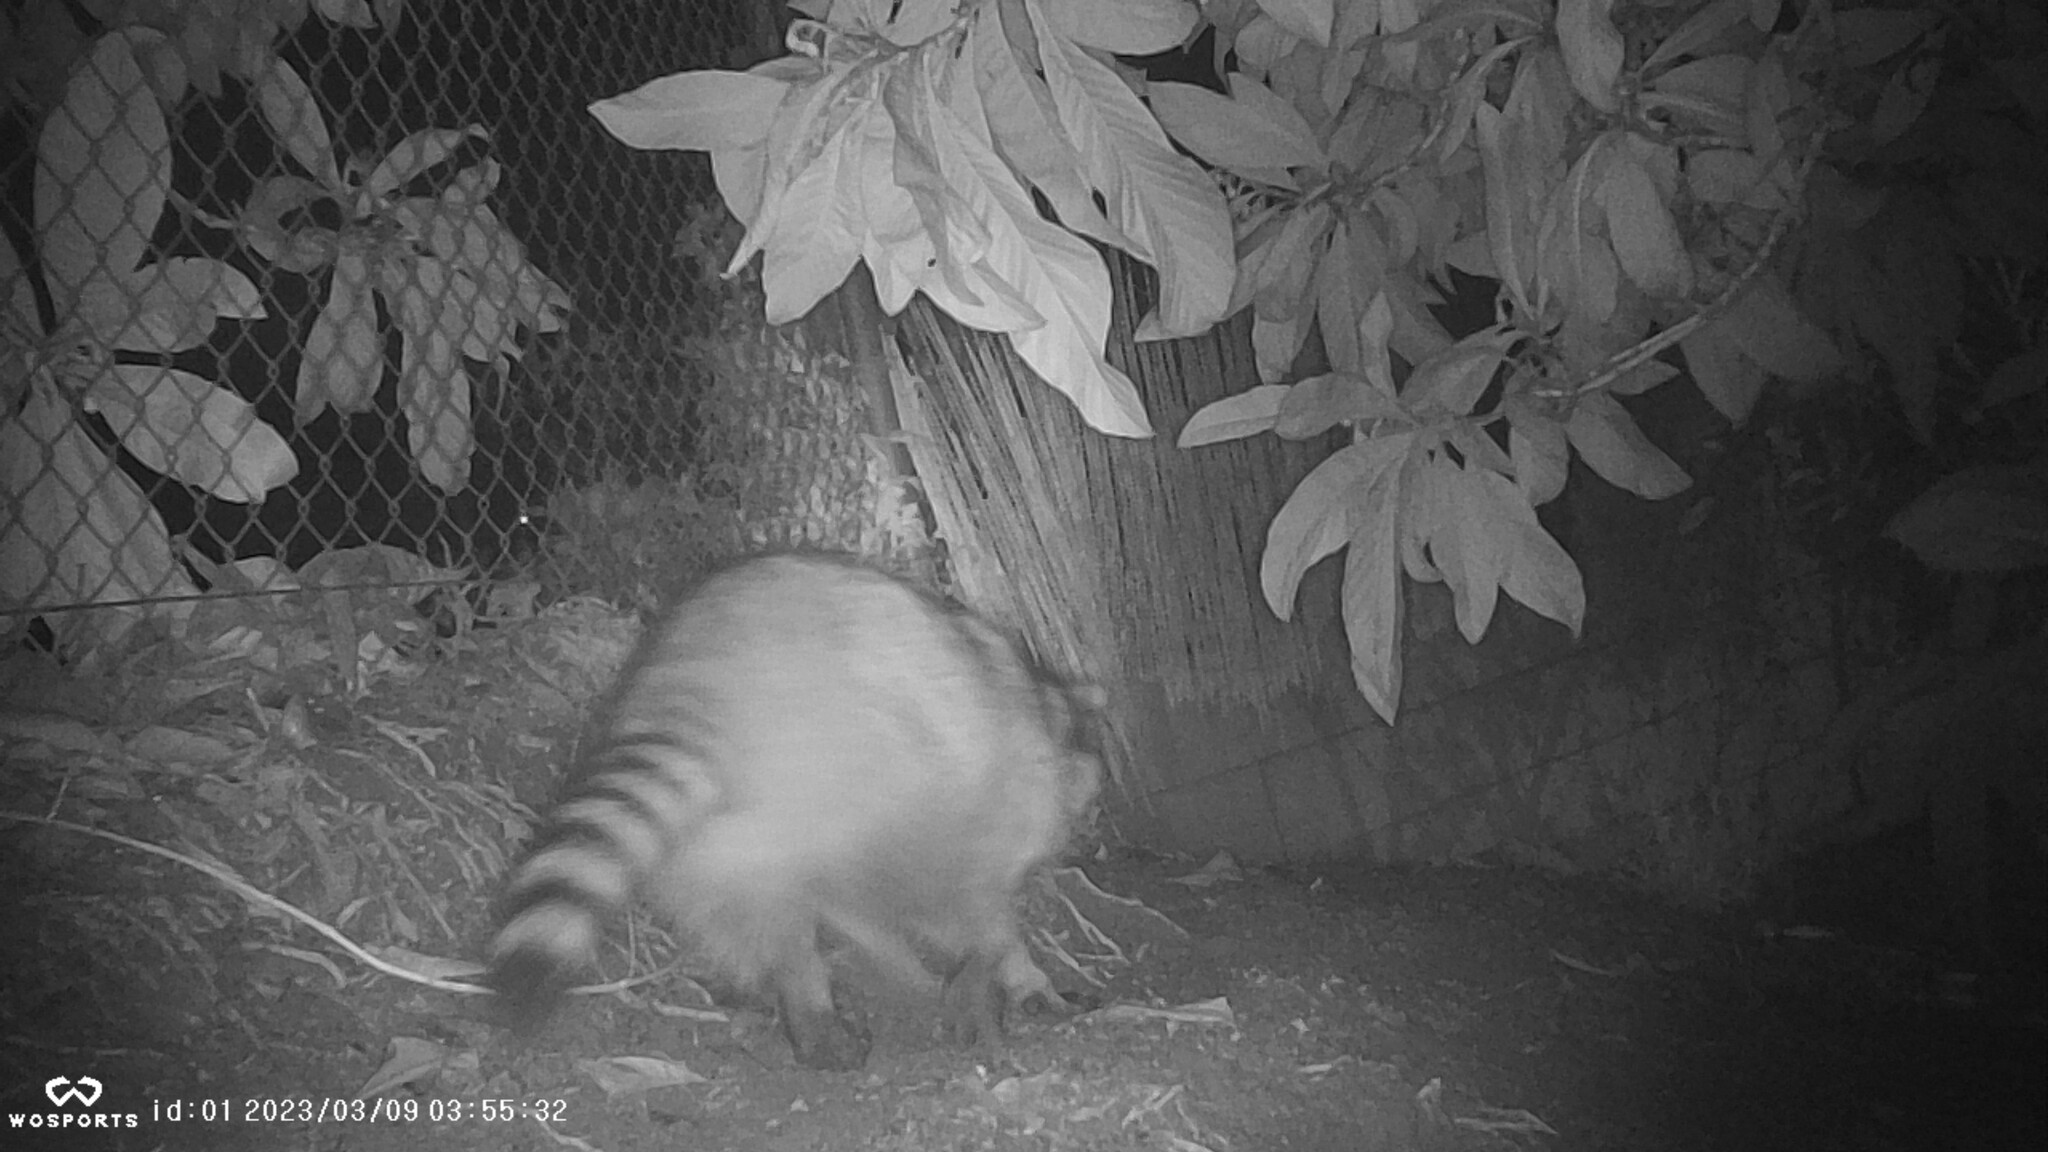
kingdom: Animalia
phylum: Chordata
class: Mammalia
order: Carnivora
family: Procyonidae
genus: Procyon
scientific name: Procyon lotor
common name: Raccoon
